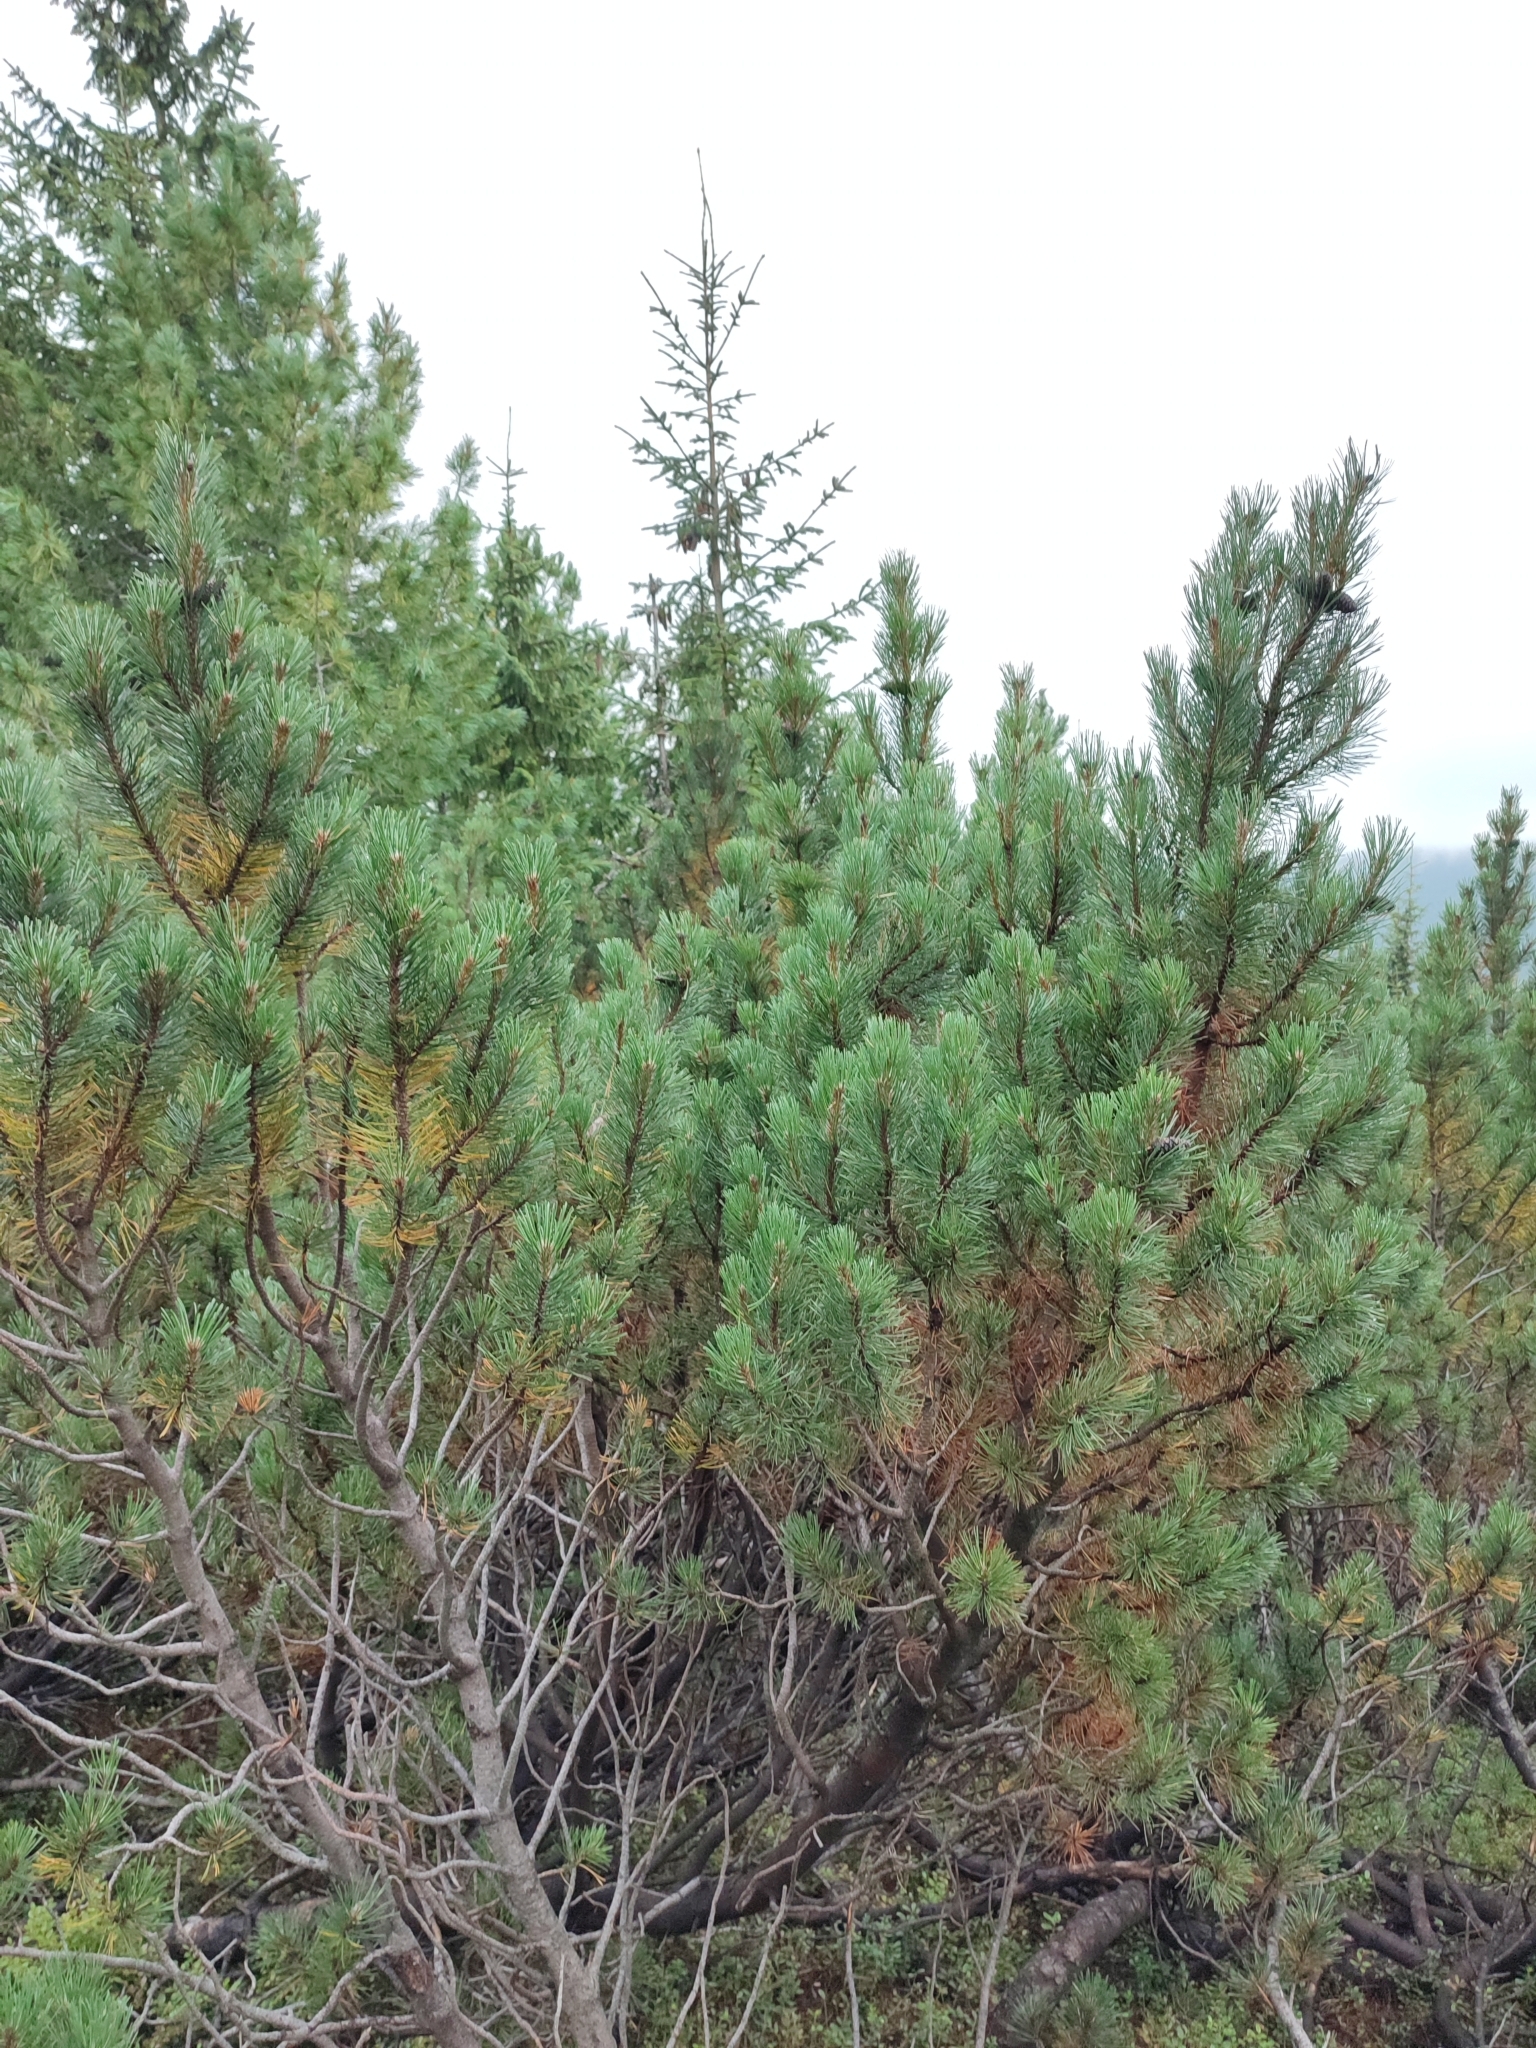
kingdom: Plantae
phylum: Tracheophyta
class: Pinopsida
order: Pinales
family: Pinaceae
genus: Pinus
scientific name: Pinus mugo
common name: Mugo pine
